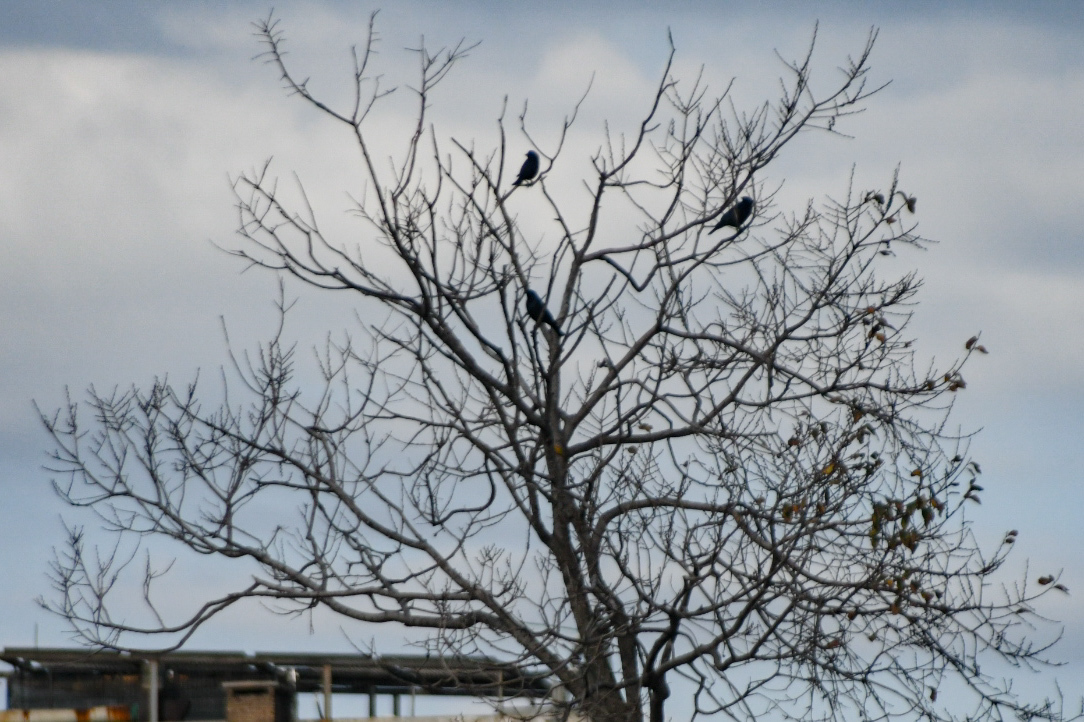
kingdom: Animalia
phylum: Chordata
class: Aves
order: Passeriformes
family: Icteridae
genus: Molothrus
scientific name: Molothrus bonariensis
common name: Shiny cowbird
